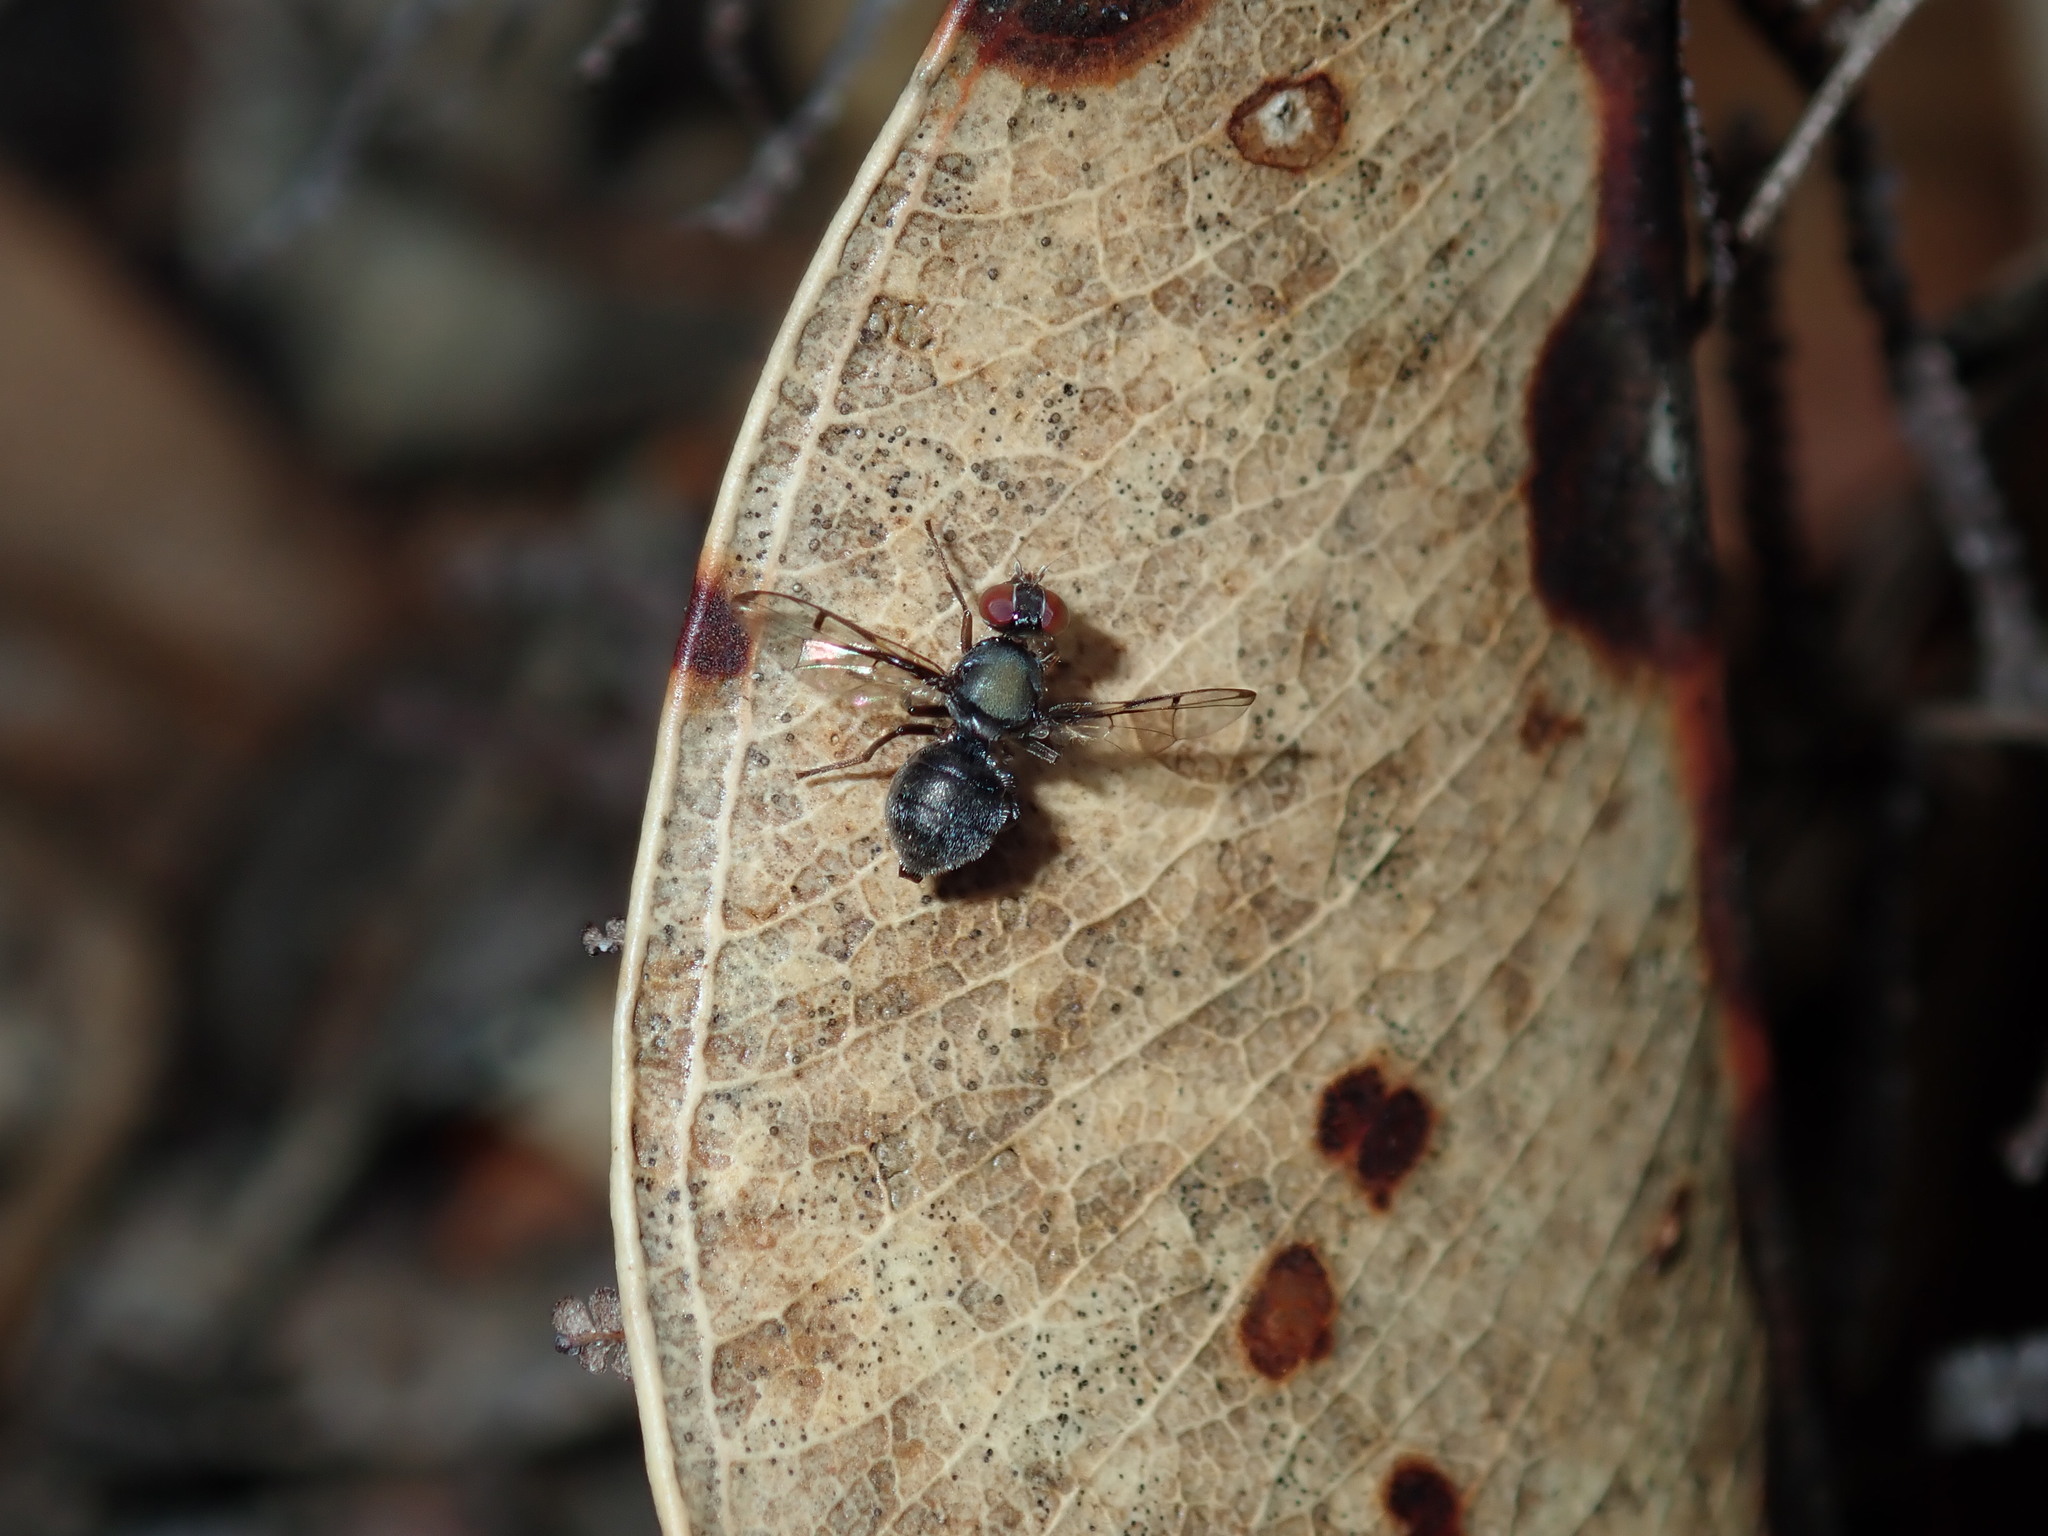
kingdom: Animalia
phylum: Arthropoda
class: Insecta
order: Diptera
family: Platystomatidae
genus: Pogonortalis
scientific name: Pogonortalis doclea
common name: Boatman fly
